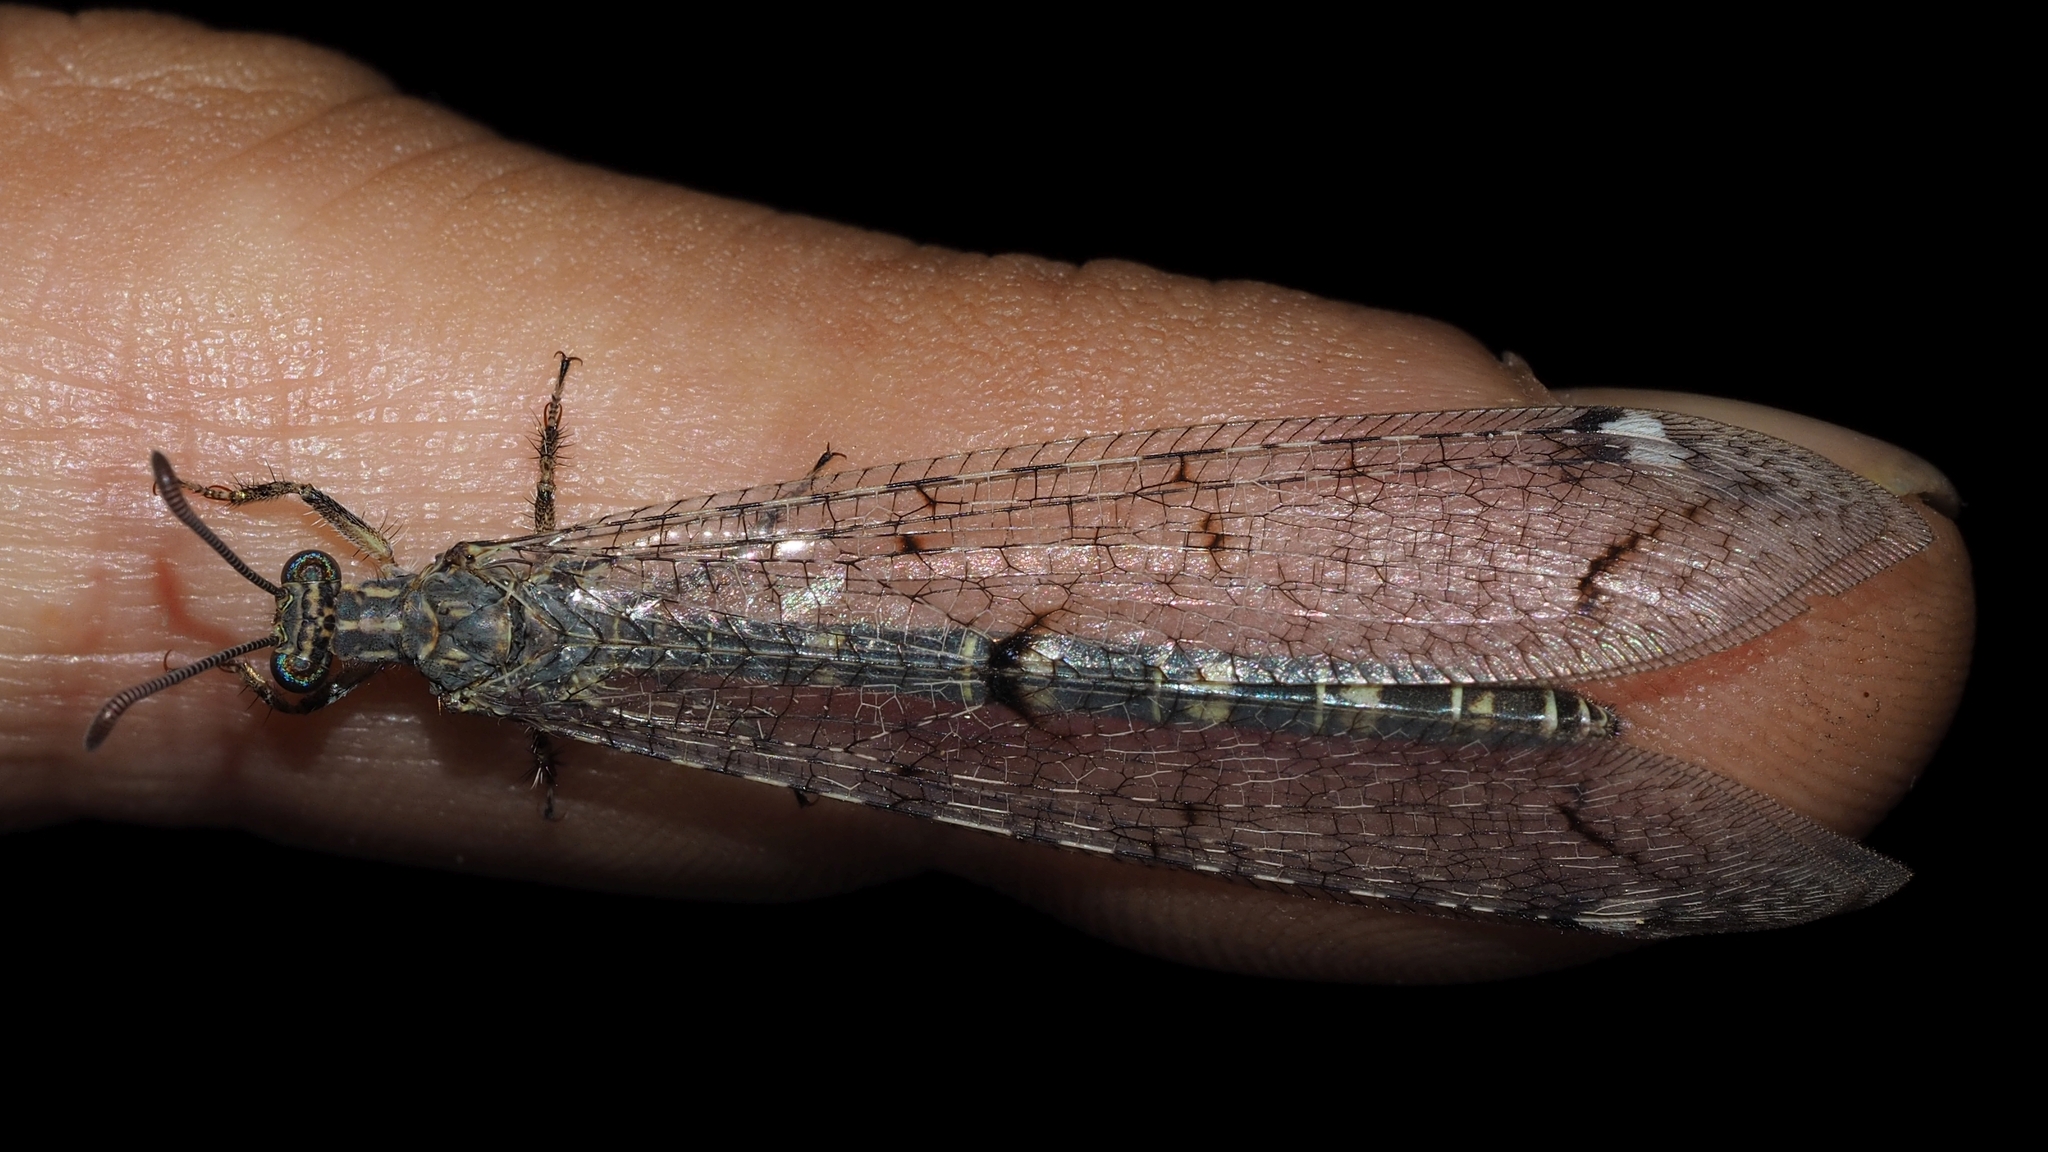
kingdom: Animalia
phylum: Arthropoda
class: Insecta
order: Neuroptera
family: Myrmeleontidae
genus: Distoleon
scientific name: Distoleon tetragrammicus
